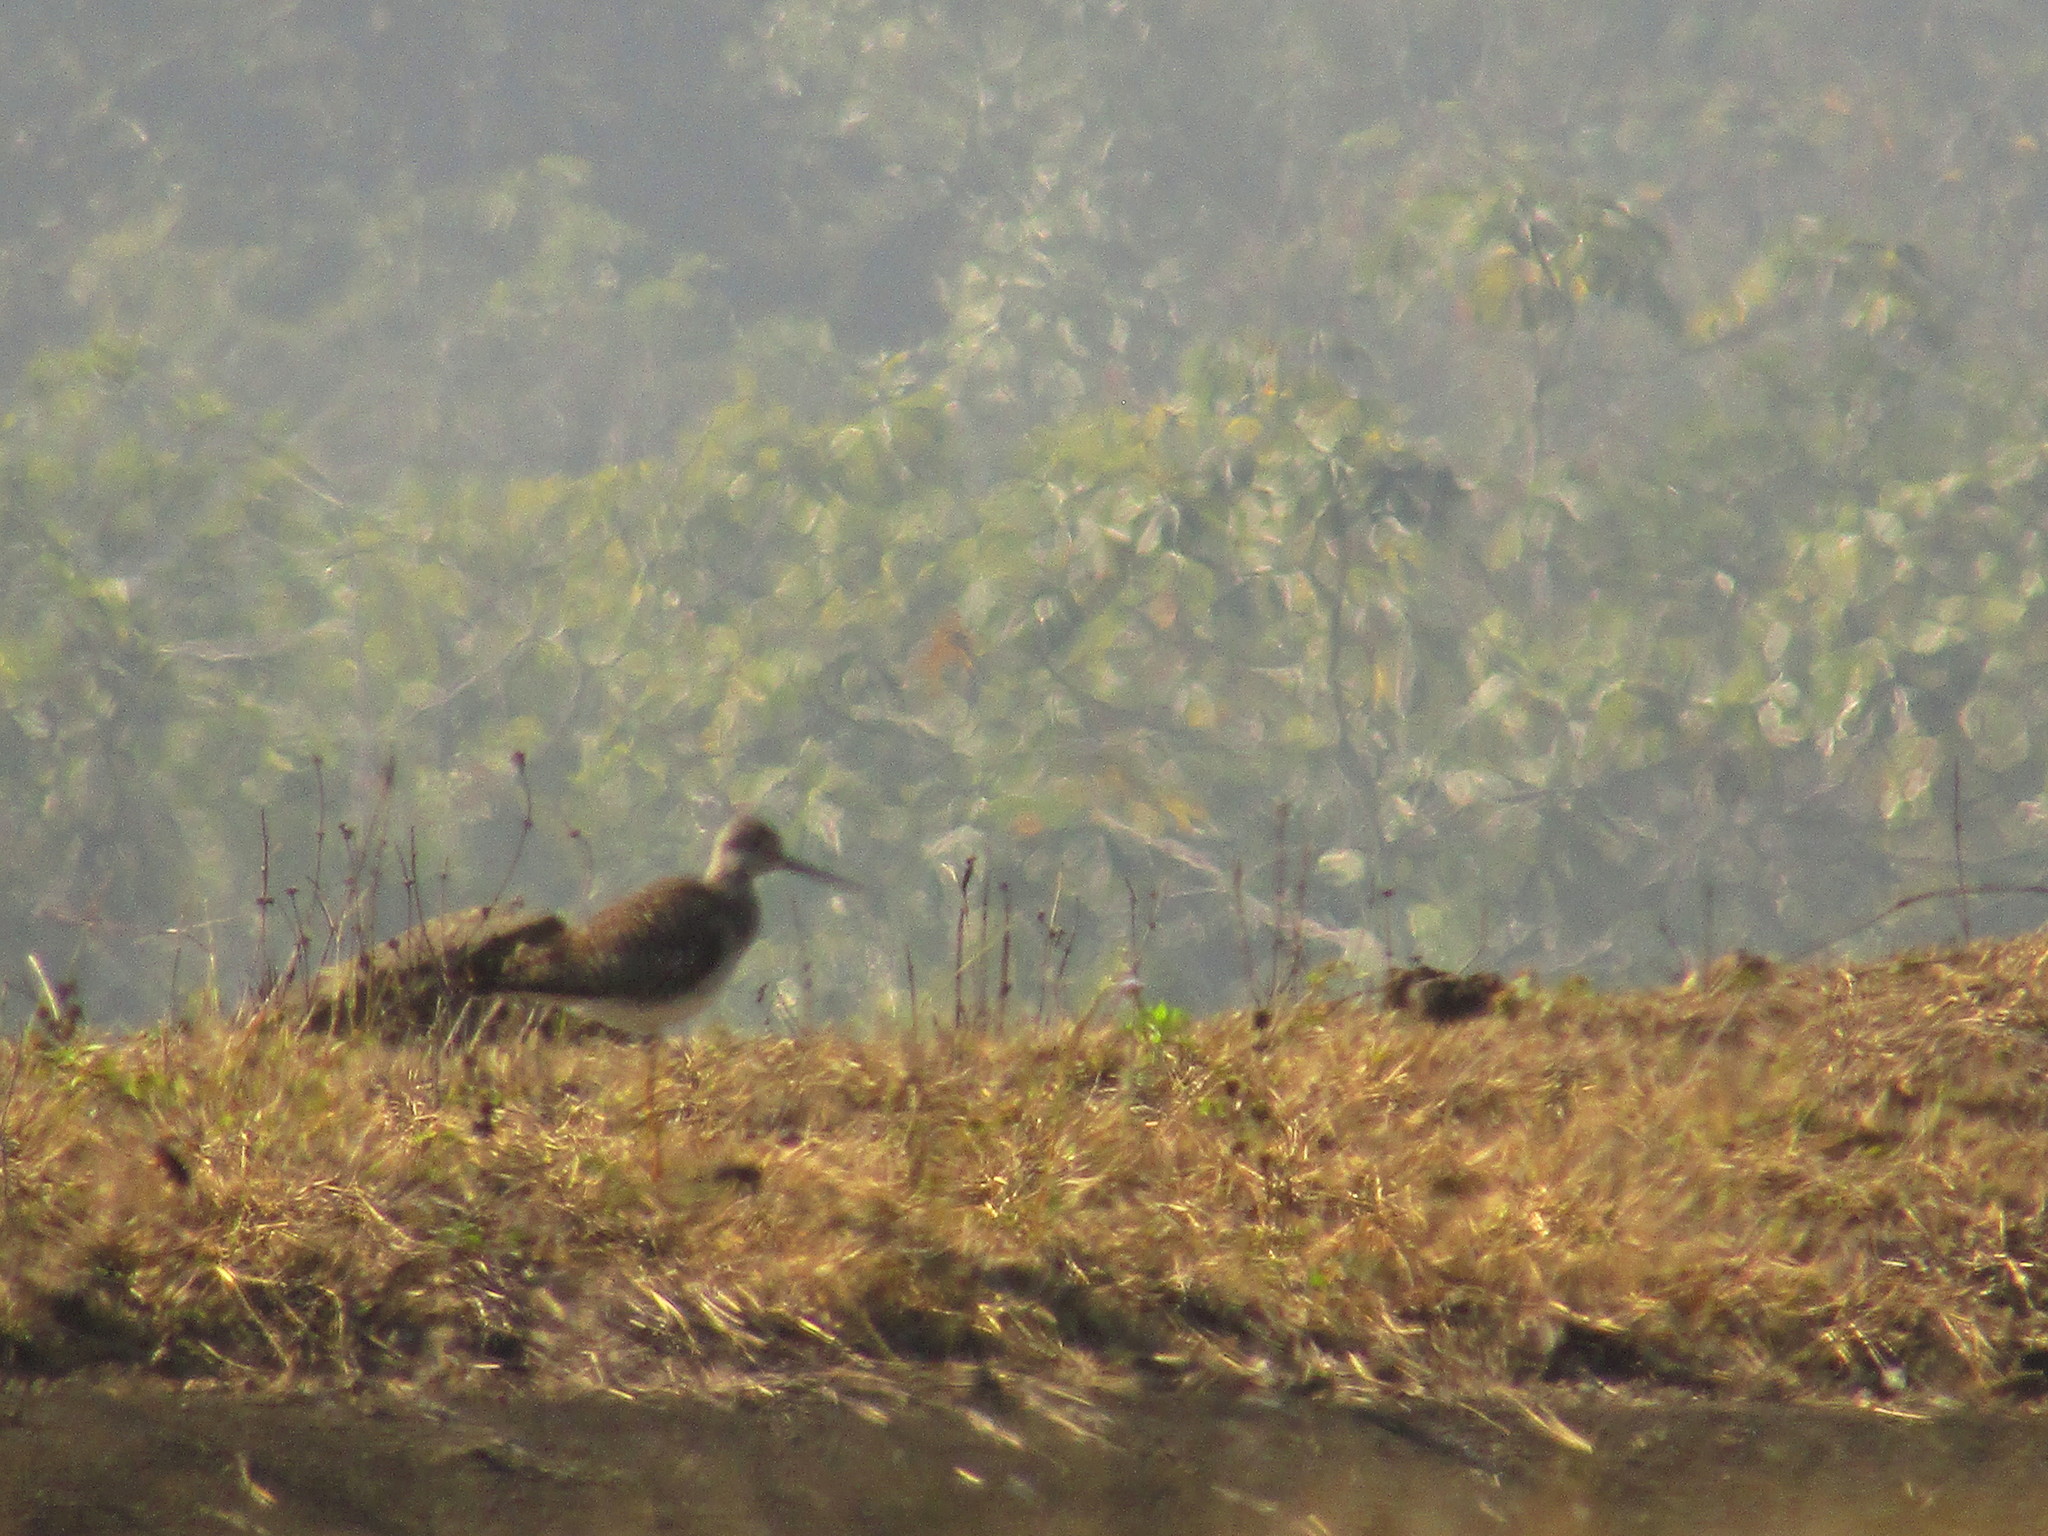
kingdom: Animalia
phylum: Chordata
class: Aves
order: Charadriiformes
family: Scolopacidae
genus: Tringa
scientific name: Tringa melanoleuca
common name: Greater yellowlegs
